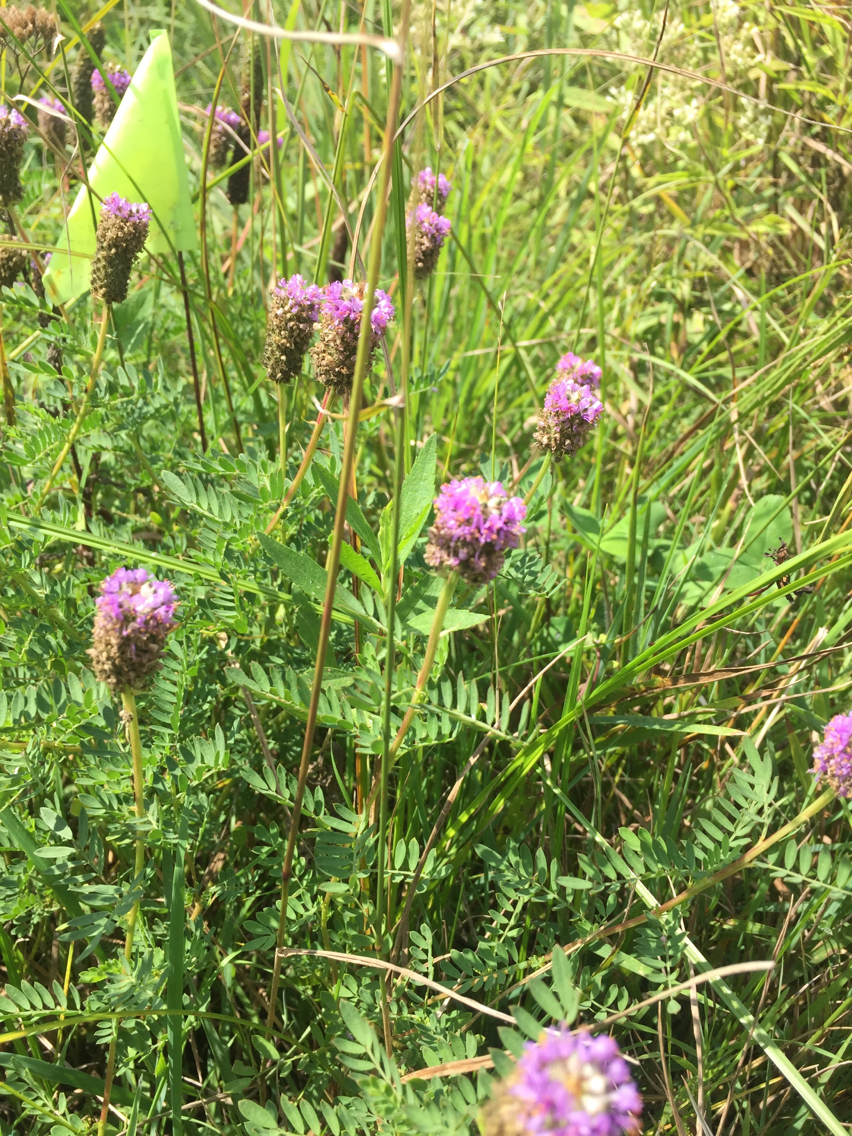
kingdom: Plantae
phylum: Tracheophyta
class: Magnoliopsida
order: Fabales
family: Fabaceae
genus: Dalea
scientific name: Dalea foliosa
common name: Leafy prairie-clover
